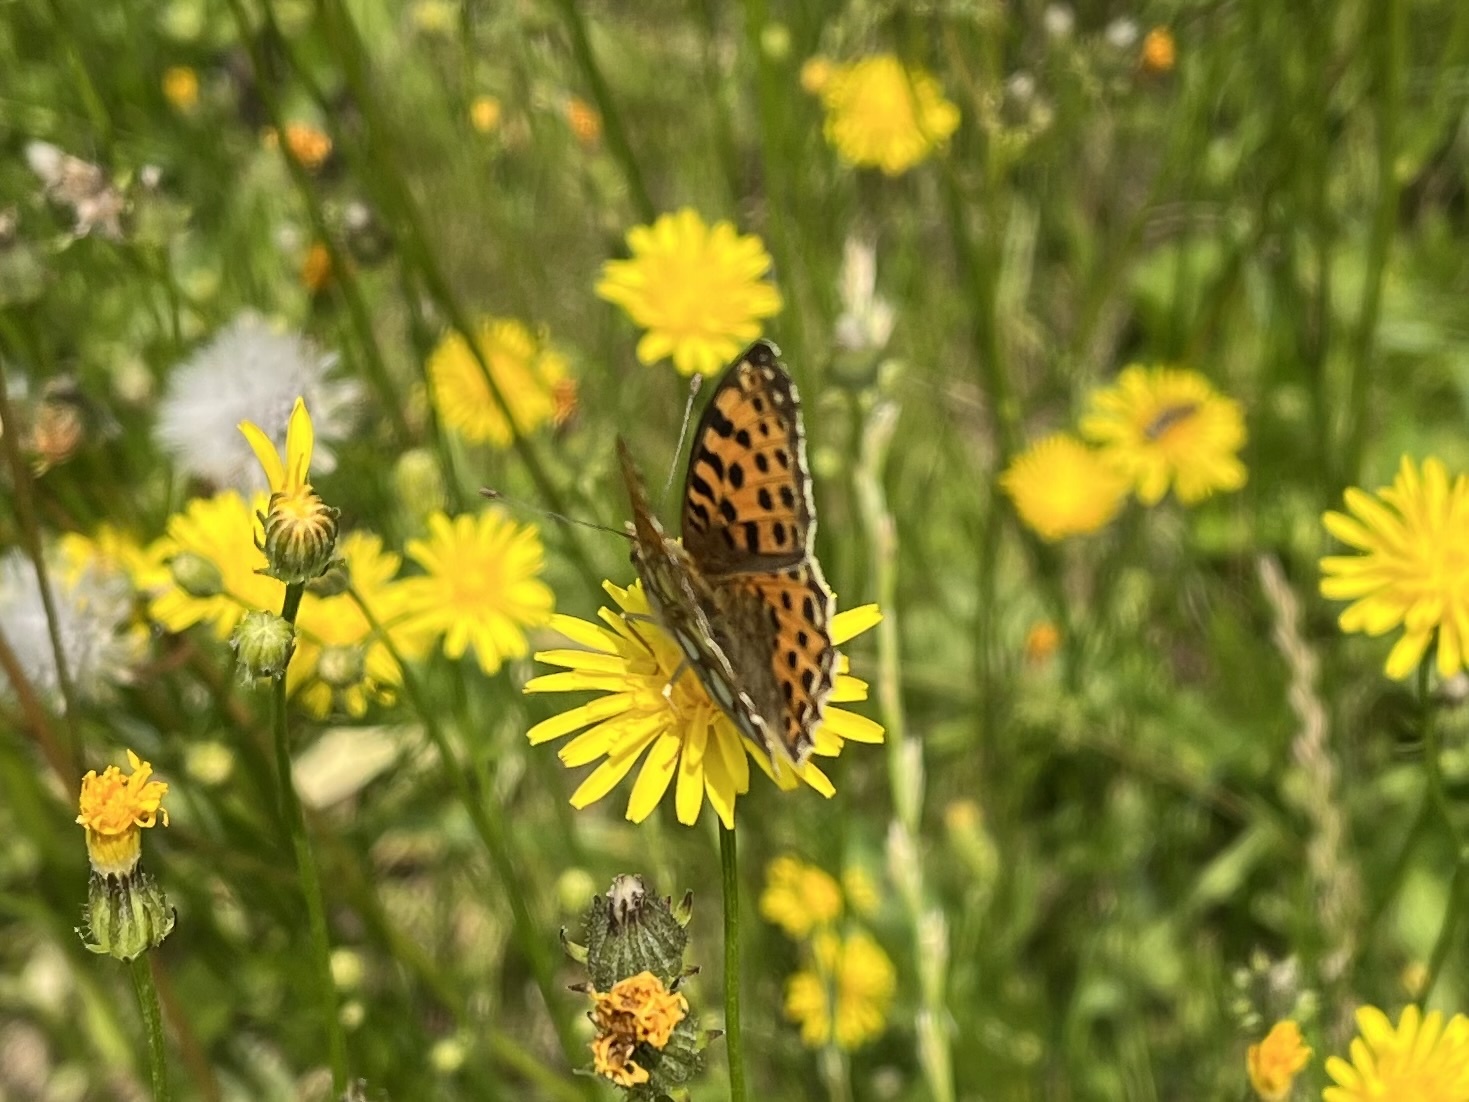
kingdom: Animalia
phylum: Arthropoda
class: Insecta
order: Lepidoptera
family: Nymphalidae
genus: Issoria
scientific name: Issoria lathonia
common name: Queen of spain fritillary
